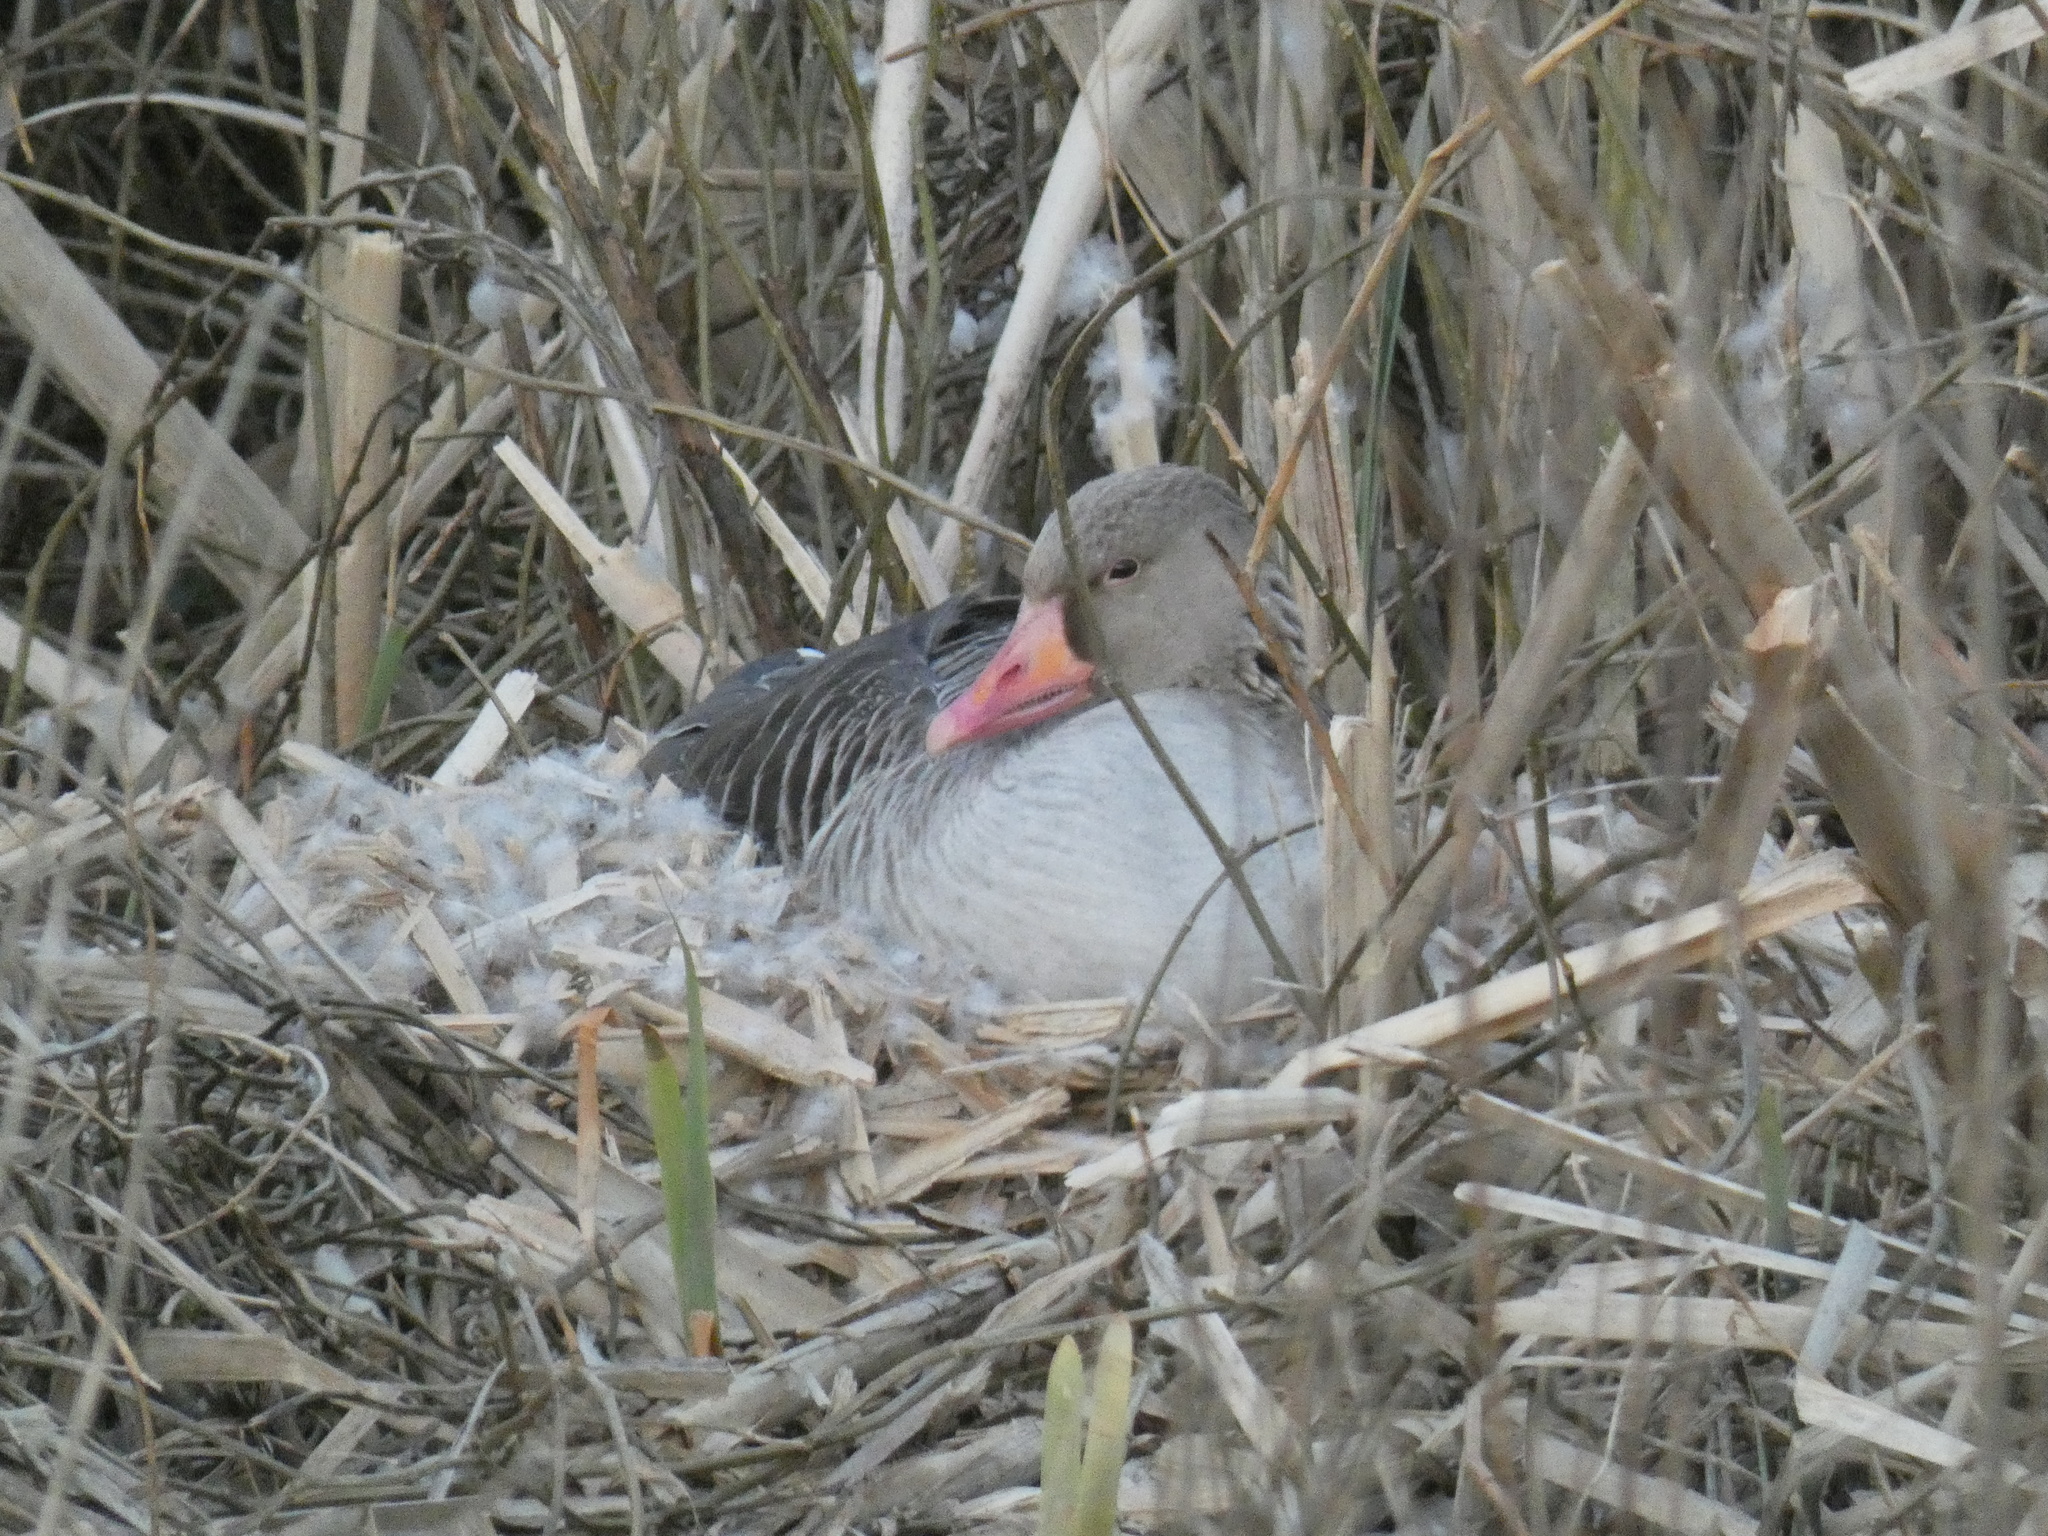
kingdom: Animalia
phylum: Chordata
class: Aves
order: Anseriformes
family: Anatidae
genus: Anser
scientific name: Anser anser
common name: Greylag goose
